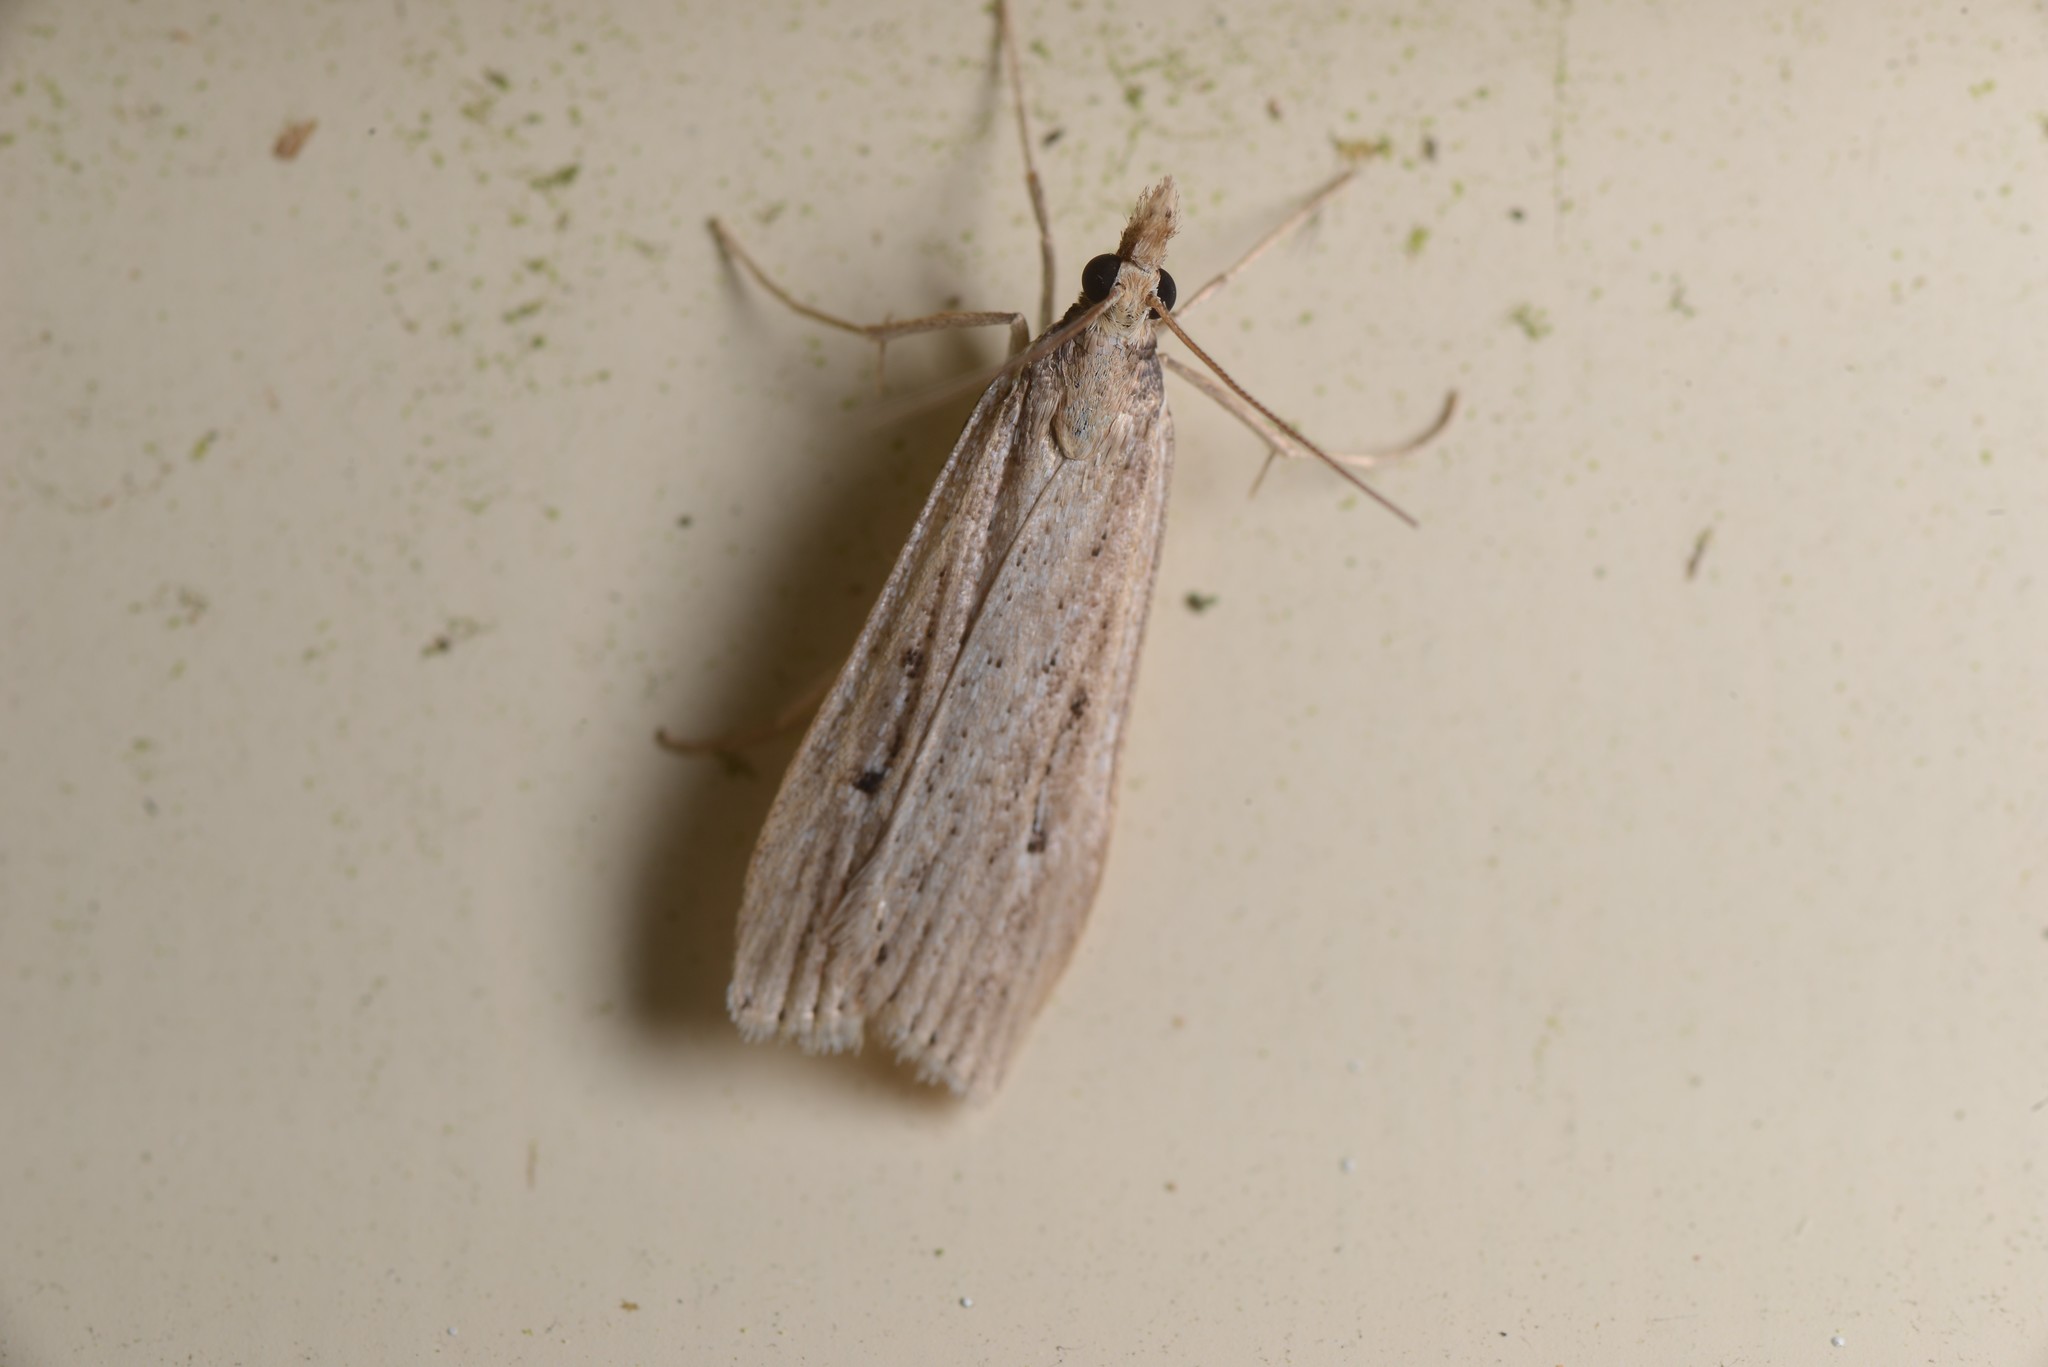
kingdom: Animalia
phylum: Arthropoda
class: Insecta
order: Lepidoptera
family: Crambidae
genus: Eudonia
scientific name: Eudonia sabulosella
